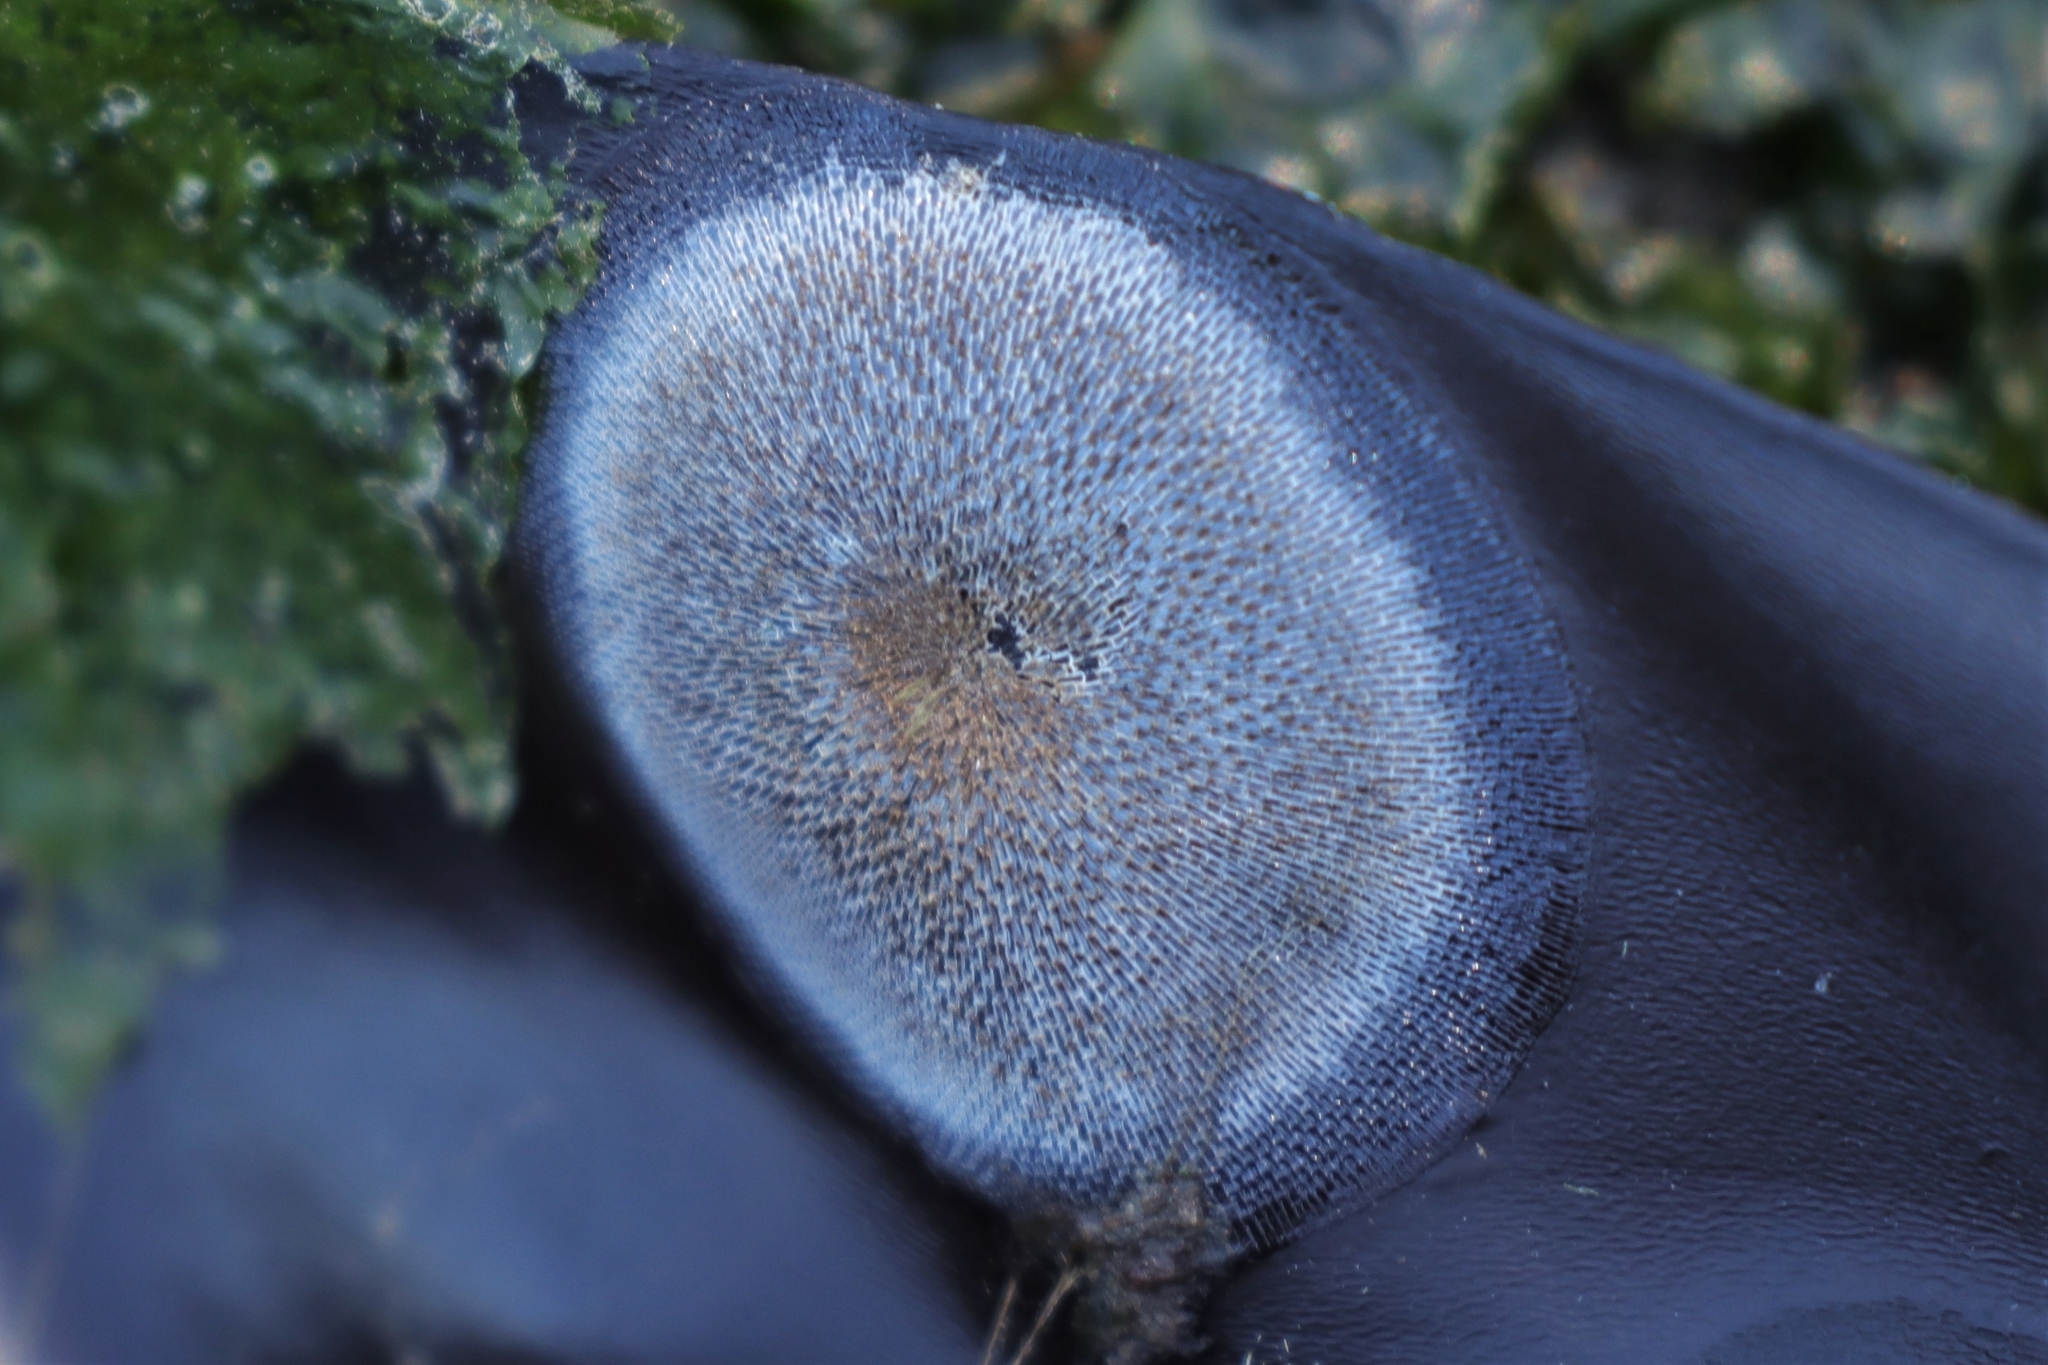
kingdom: Animalia
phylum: Bryozoa
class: Gymnolaemata
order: Cheilostomatida
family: Membraniporidae
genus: Membranipora
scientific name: Membranipora membranacea
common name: Sea mat
